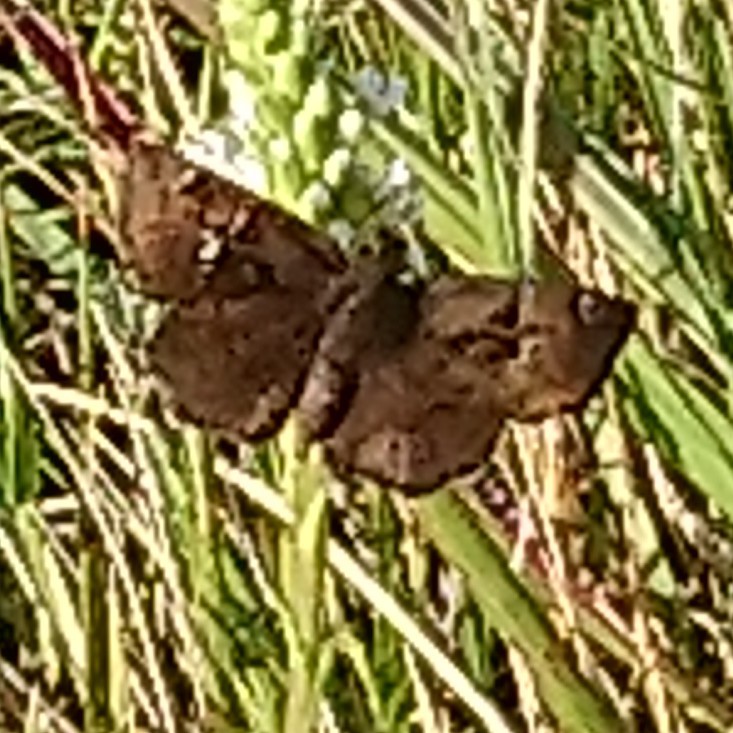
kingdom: Animalia
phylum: Arthropoda
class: Insecta
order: Lepidoptera
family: Hesperiidae
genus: Eretis
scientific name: Eretis djaelaelae
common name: Marbled elf
